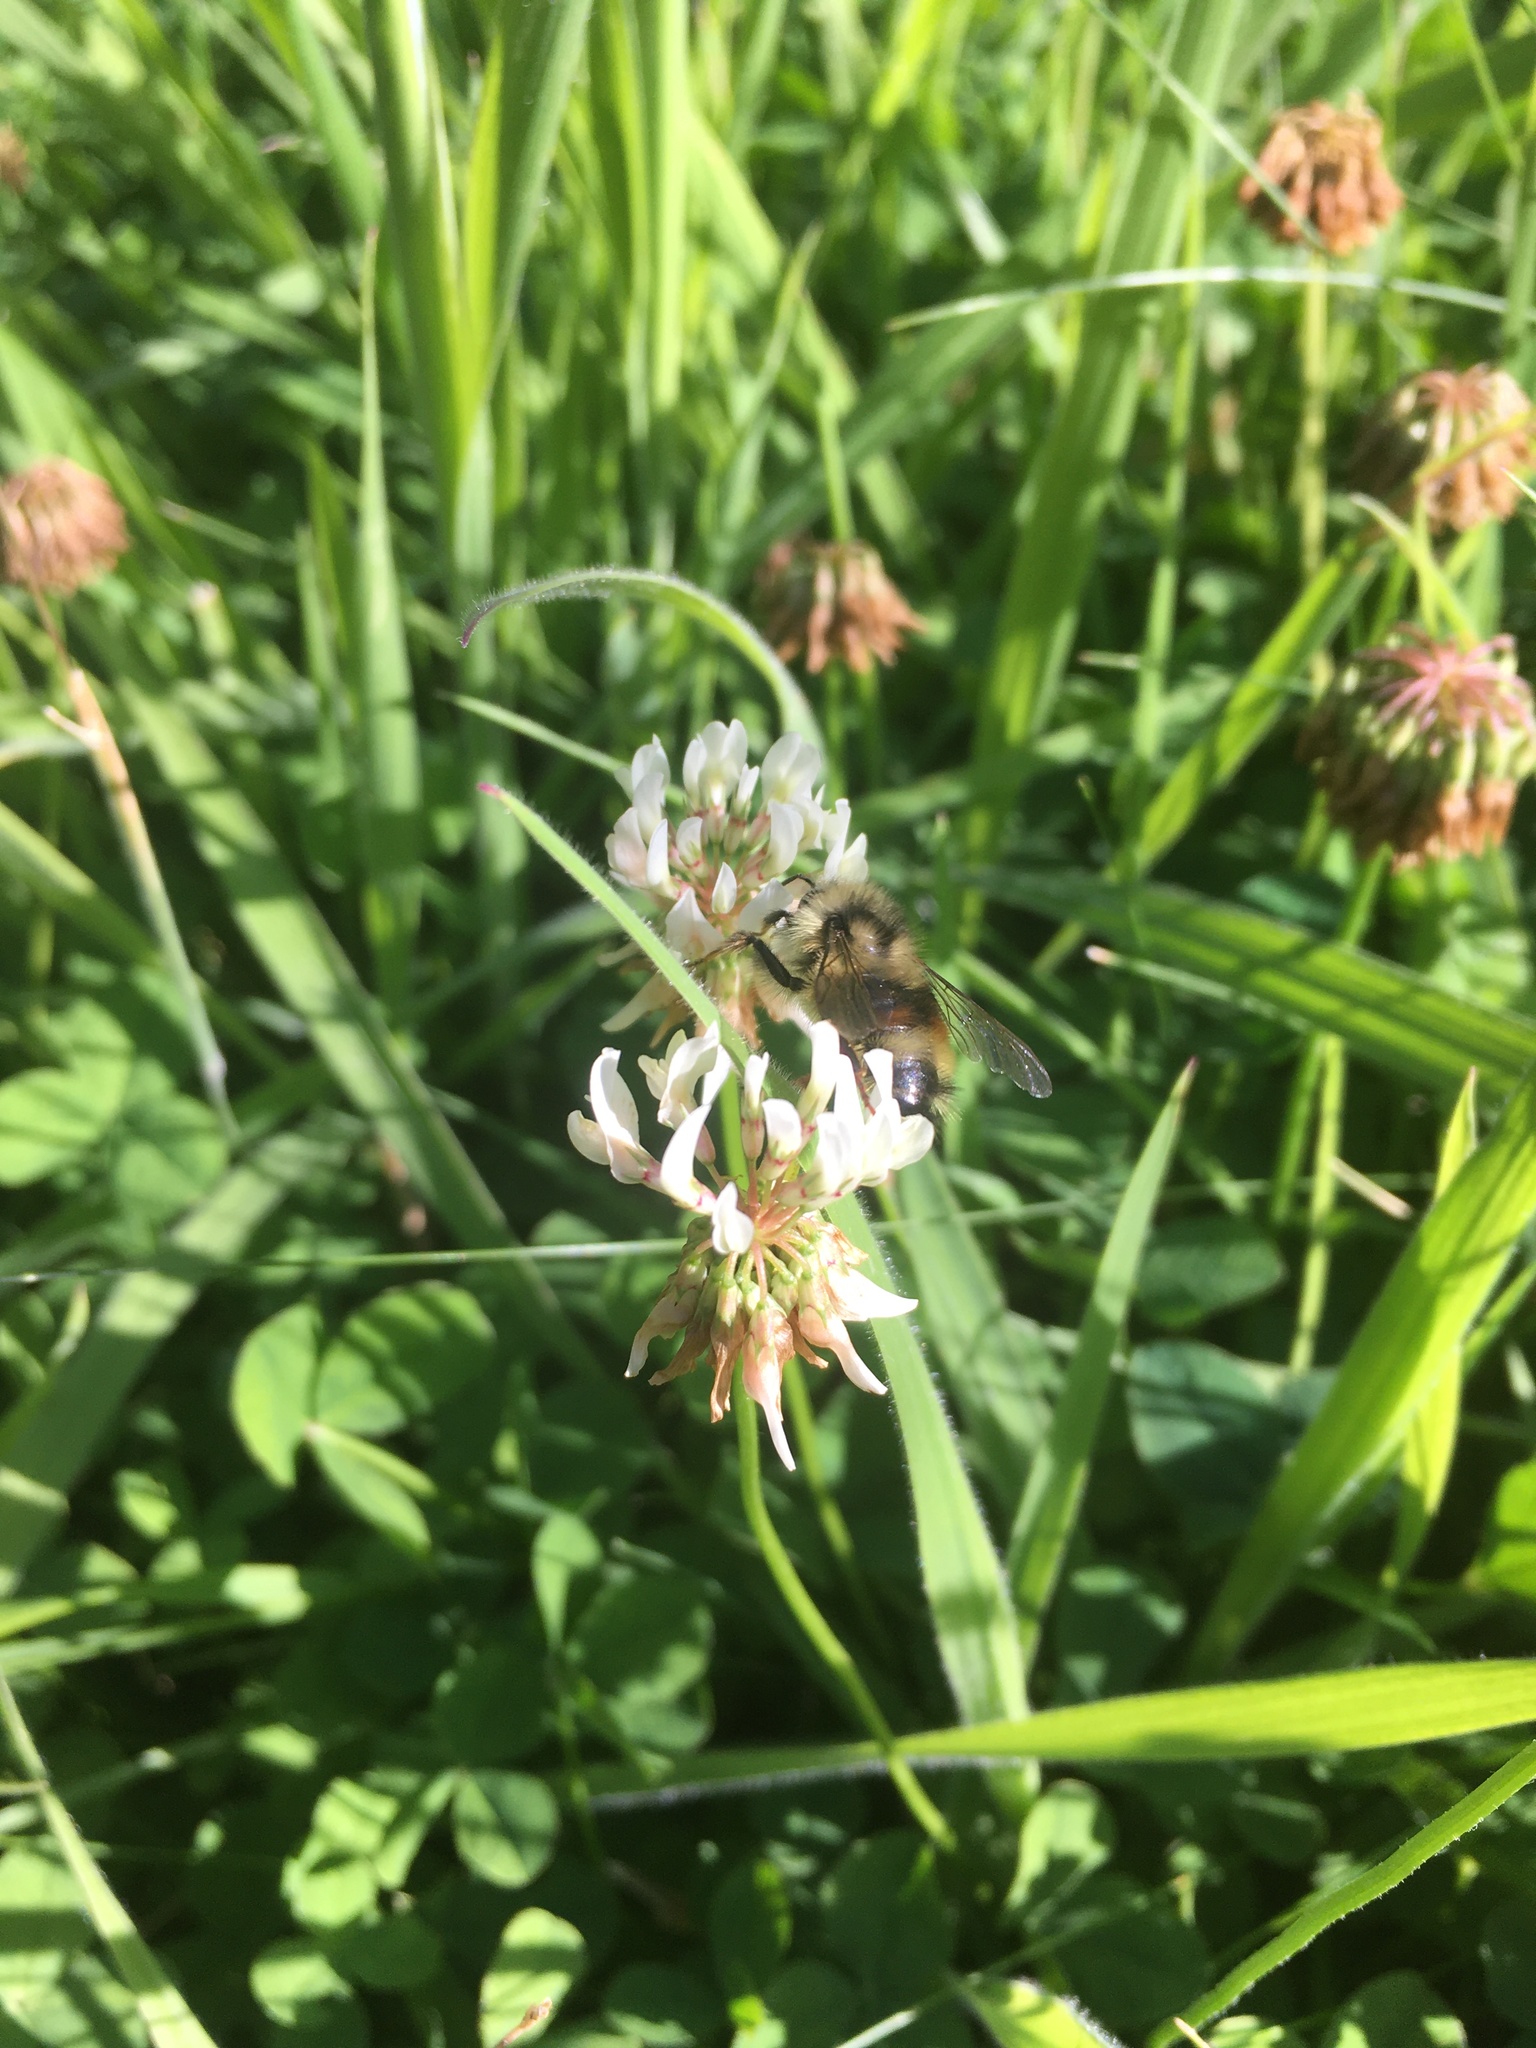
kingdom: Animalia
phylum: Arthropoda
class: Insecta
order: Hymenoptera
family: Apidae
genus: Bombus
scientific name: Bombus vancouverensis
